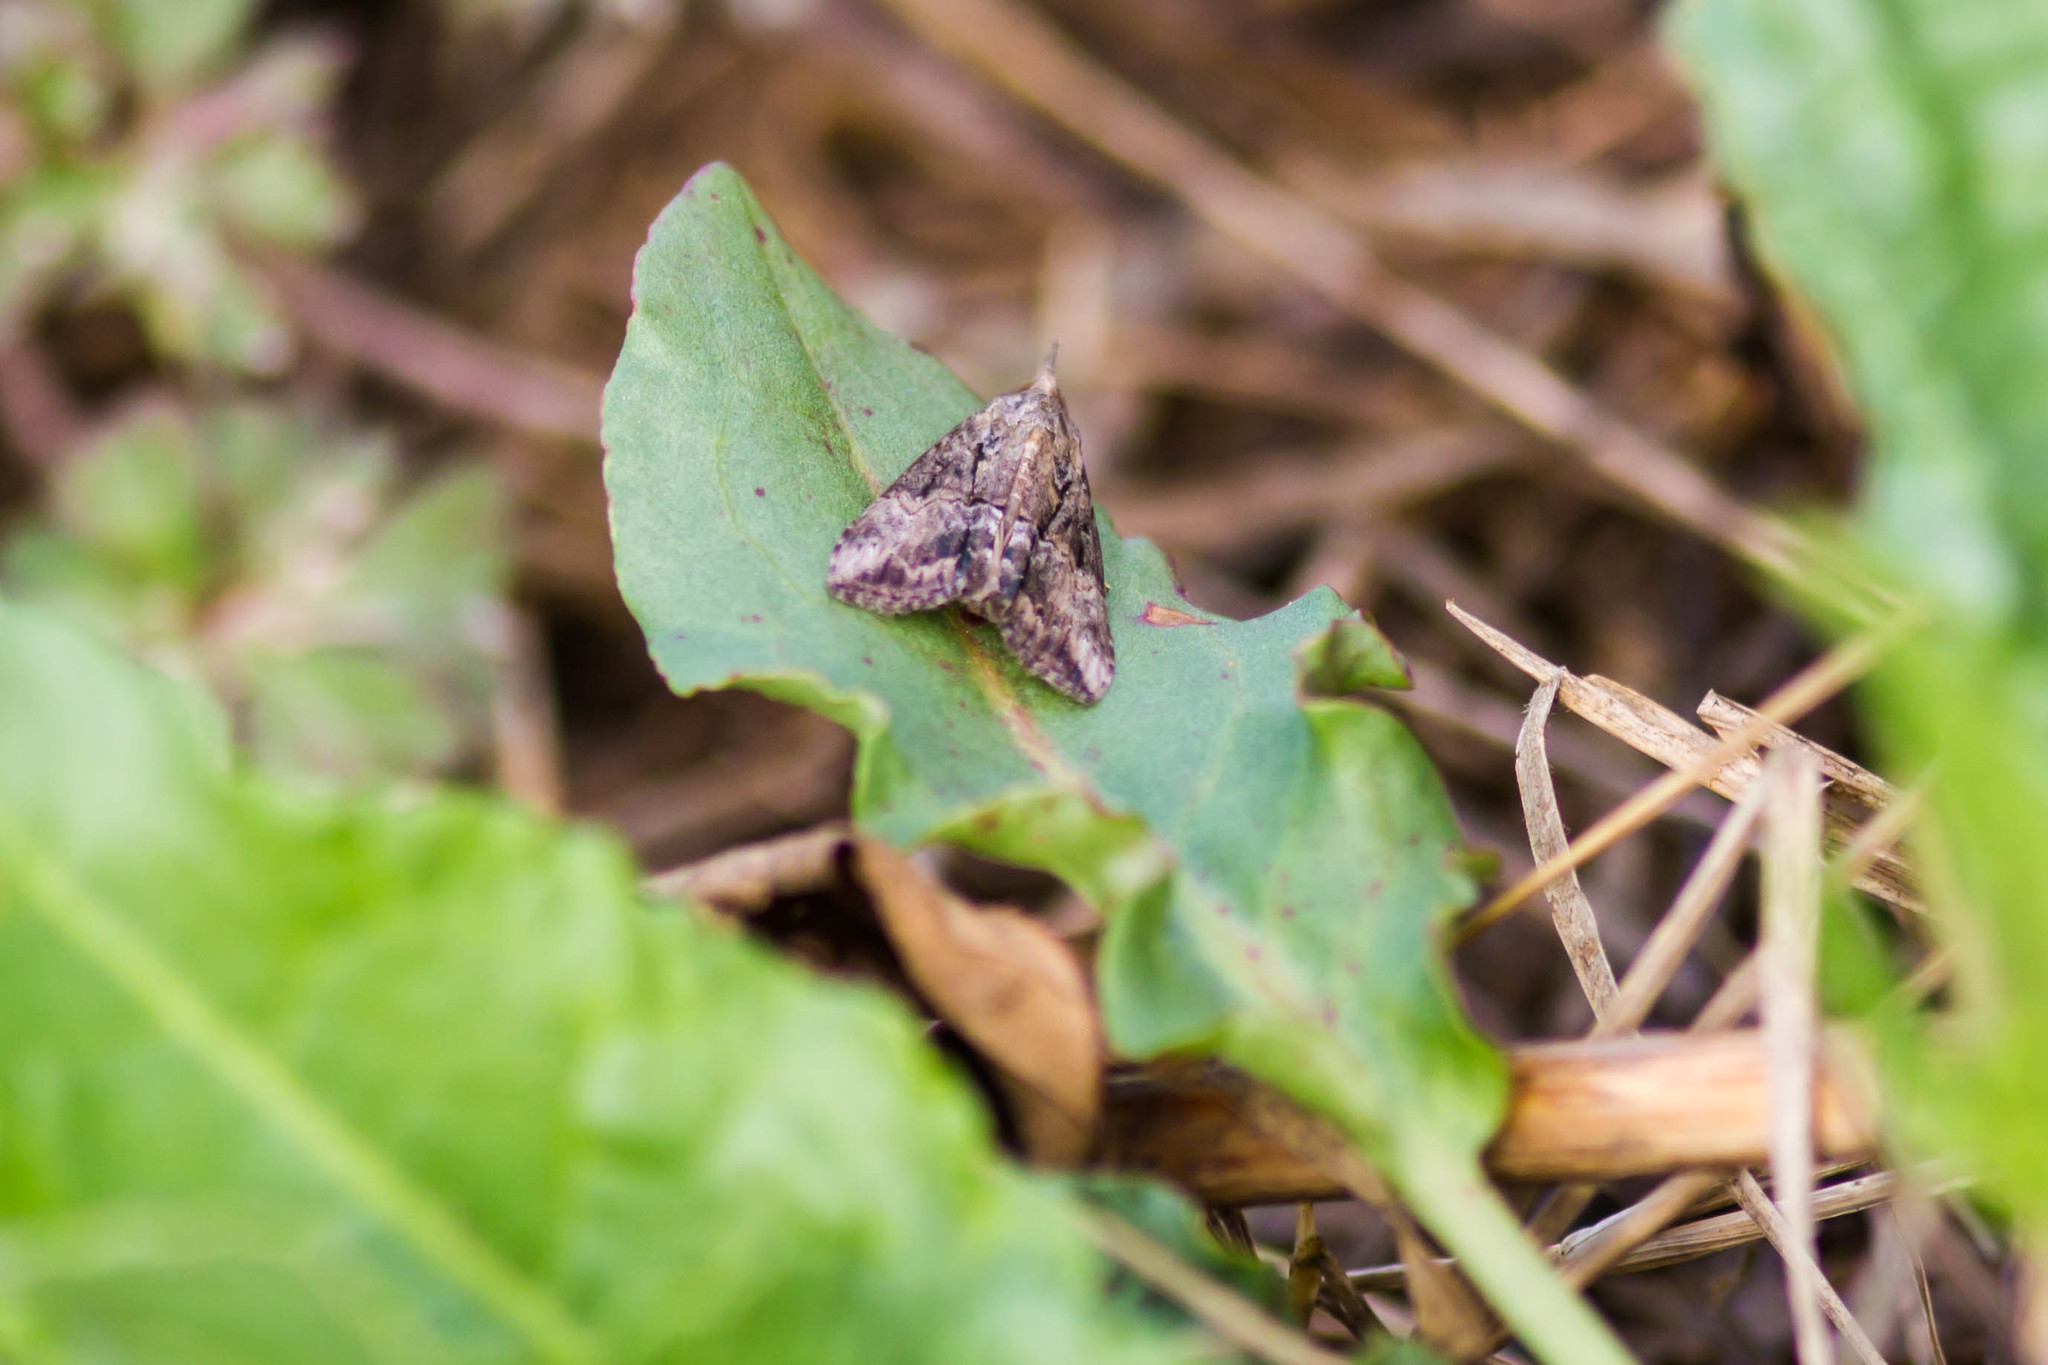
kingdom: Animalia
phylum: Arthropoda
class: Insecta
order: Lepidoptera
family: Erebidae
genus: Hypena
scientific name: Hypena scabra
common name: Green cloverworm
